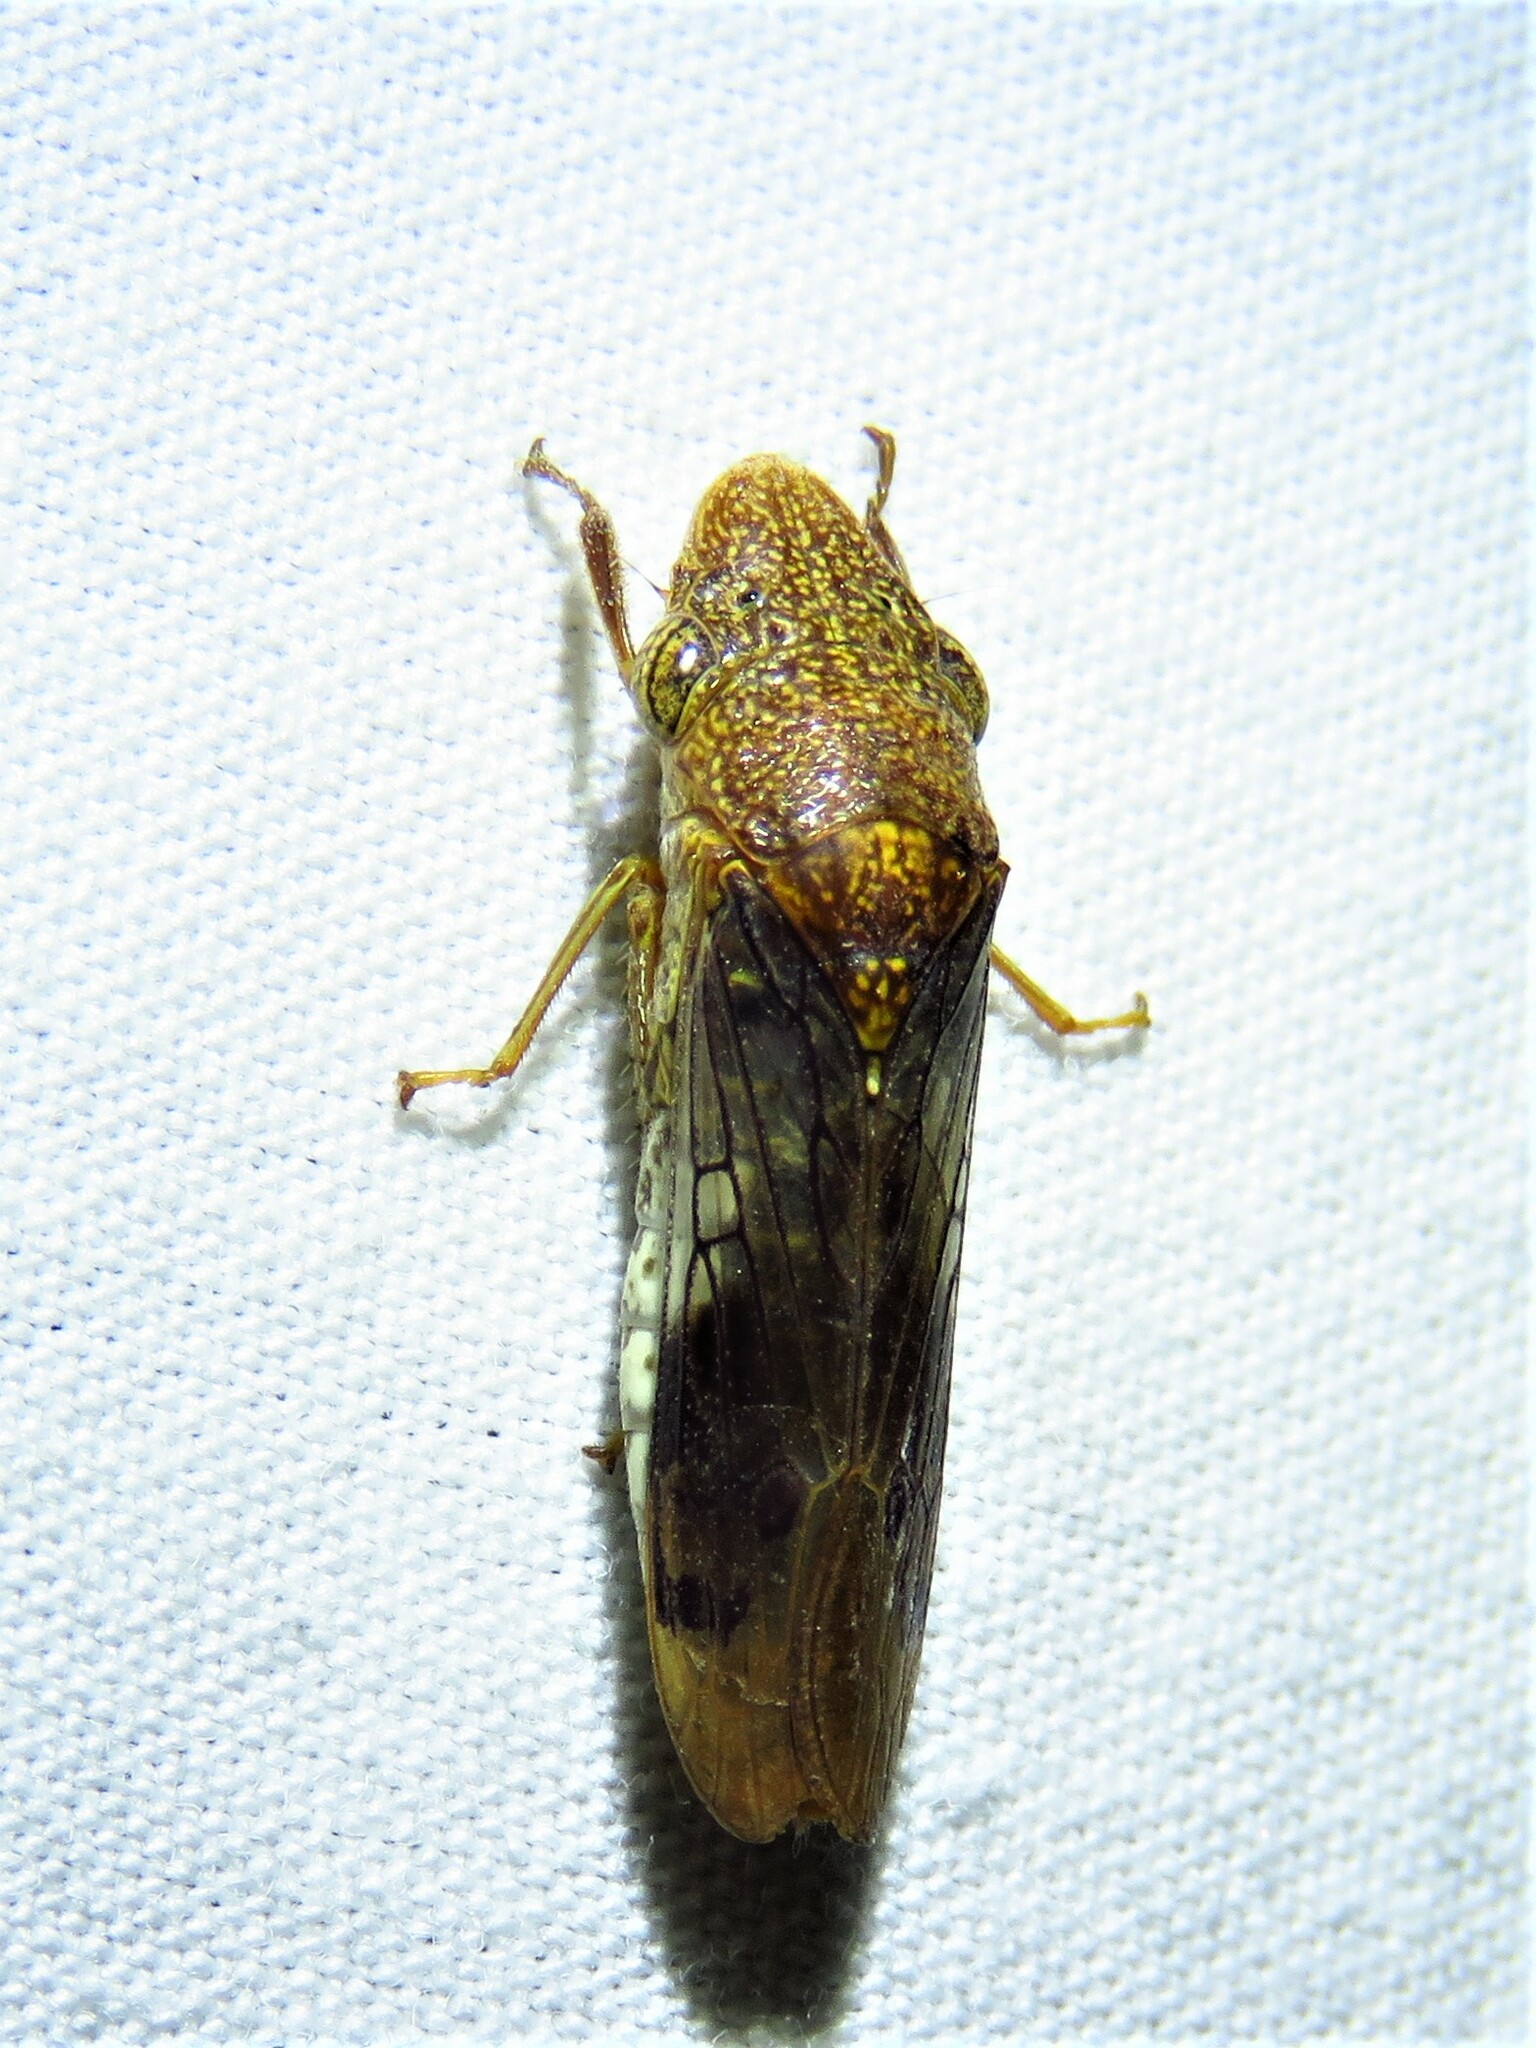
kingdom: Animalia
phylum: Arthropoda
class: Insecta
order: Hemiptera
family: Cicadellidae
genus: Homalodisca
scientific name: Homalodisca vitripennis
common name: Glassy-winged sharpshooter
